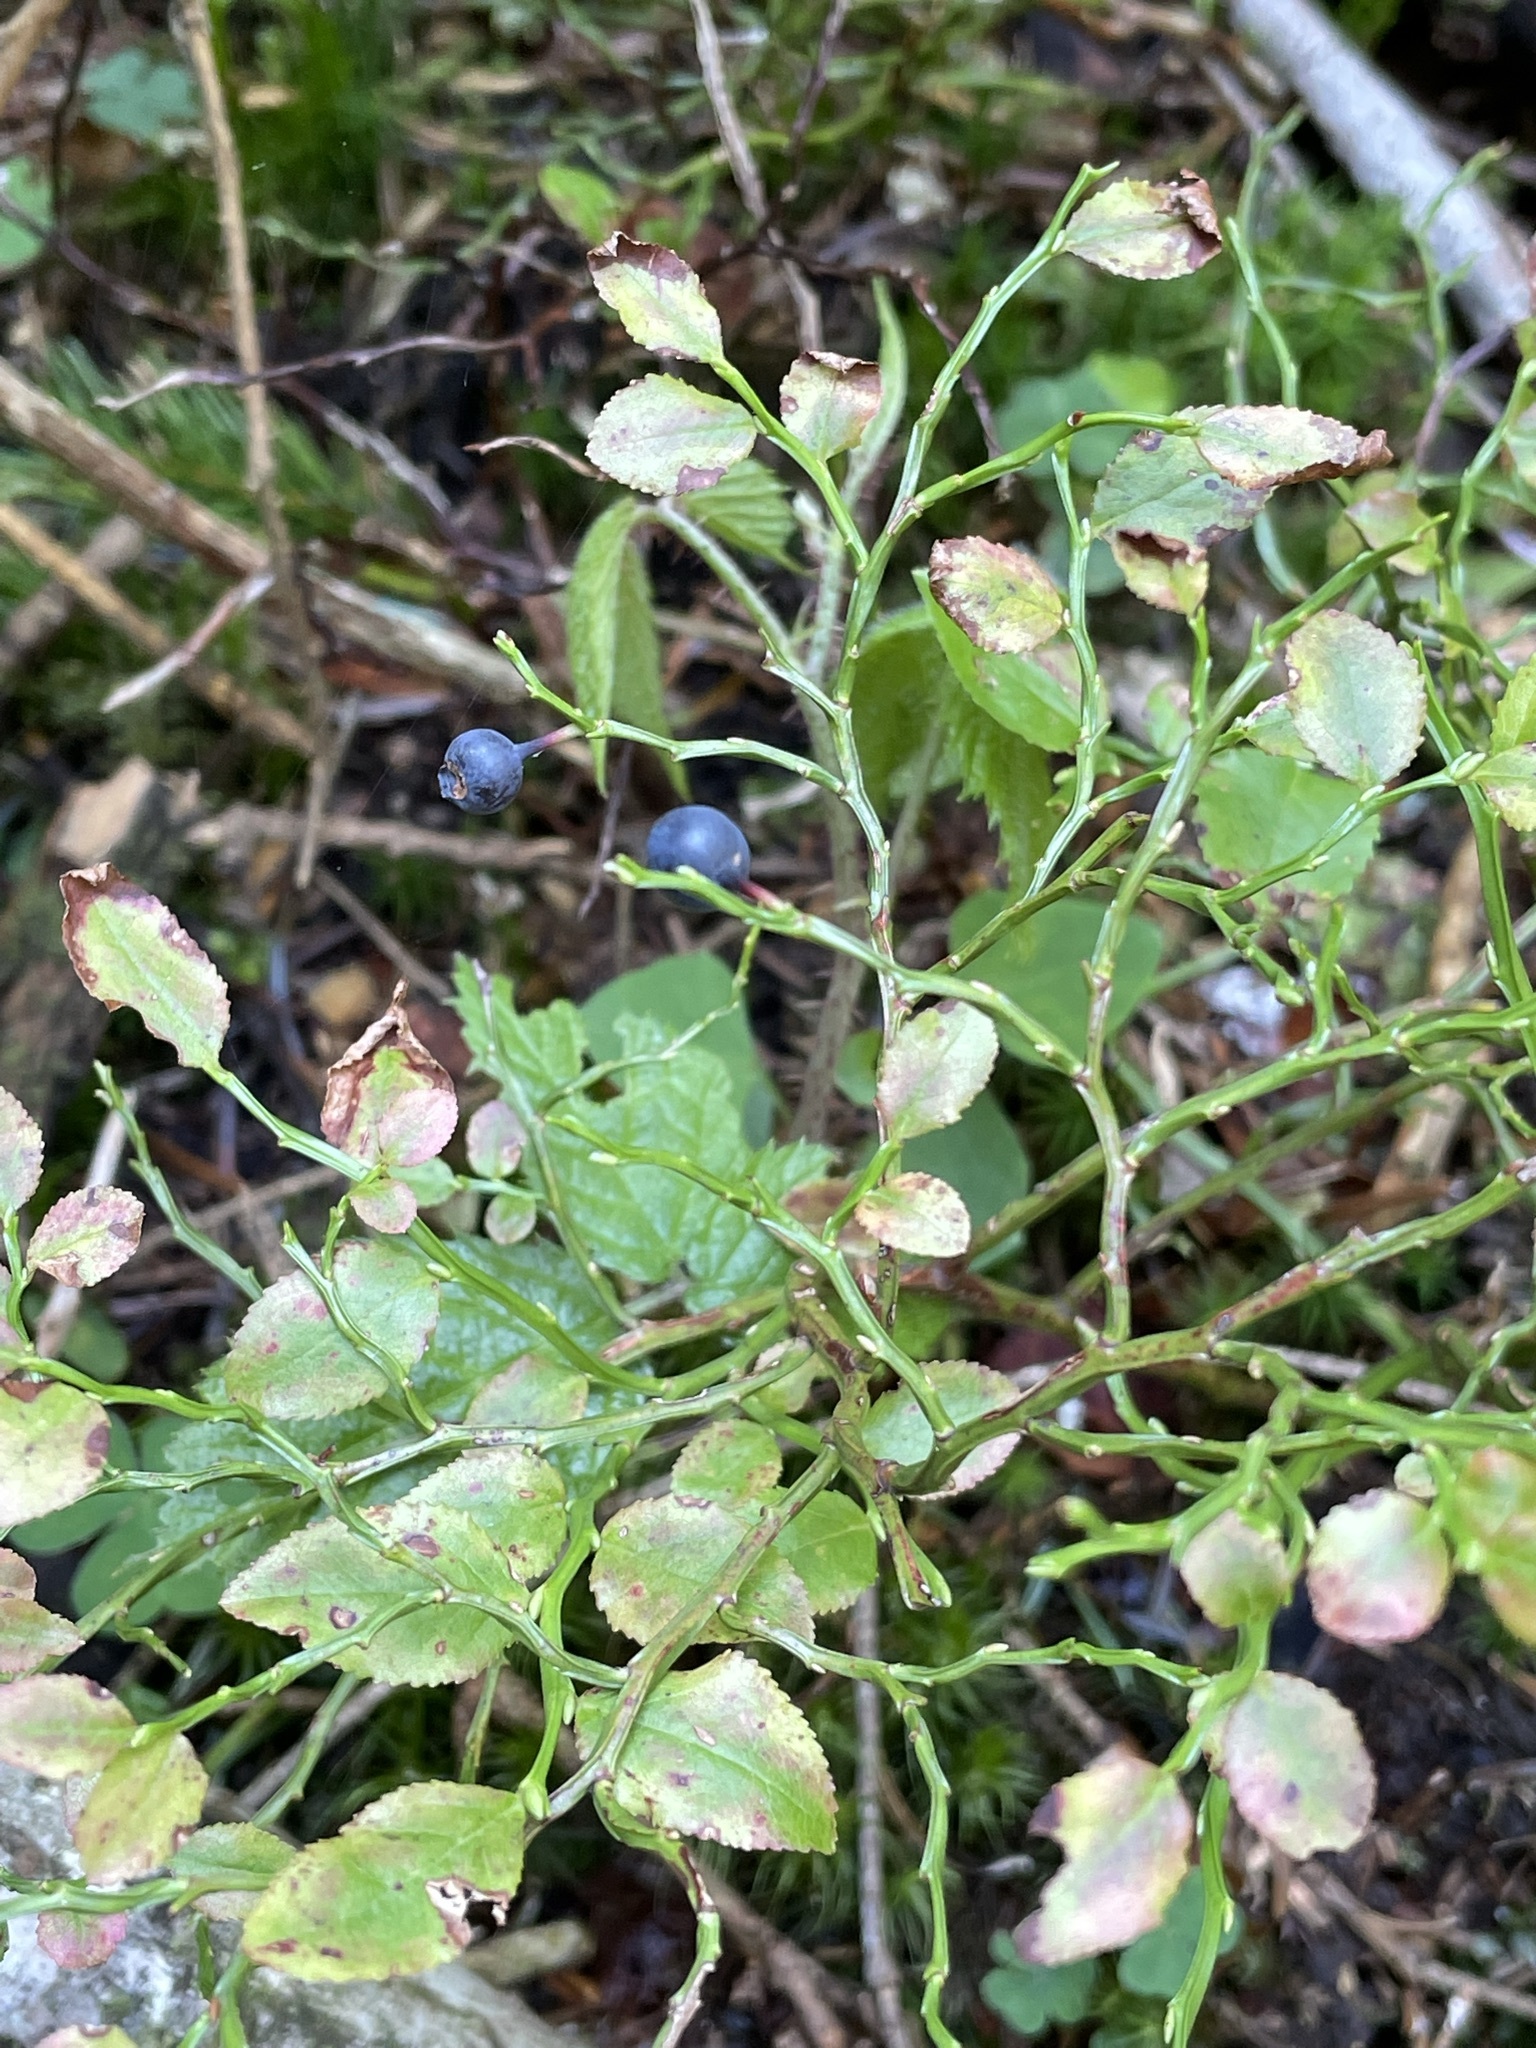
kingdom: Plantae
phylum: Tracheophyta
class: Magnoliopsida
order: Ericales
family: Ericaceae
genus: Vaccinium
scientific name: Vaccinium myrtillus
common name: Bilberry
